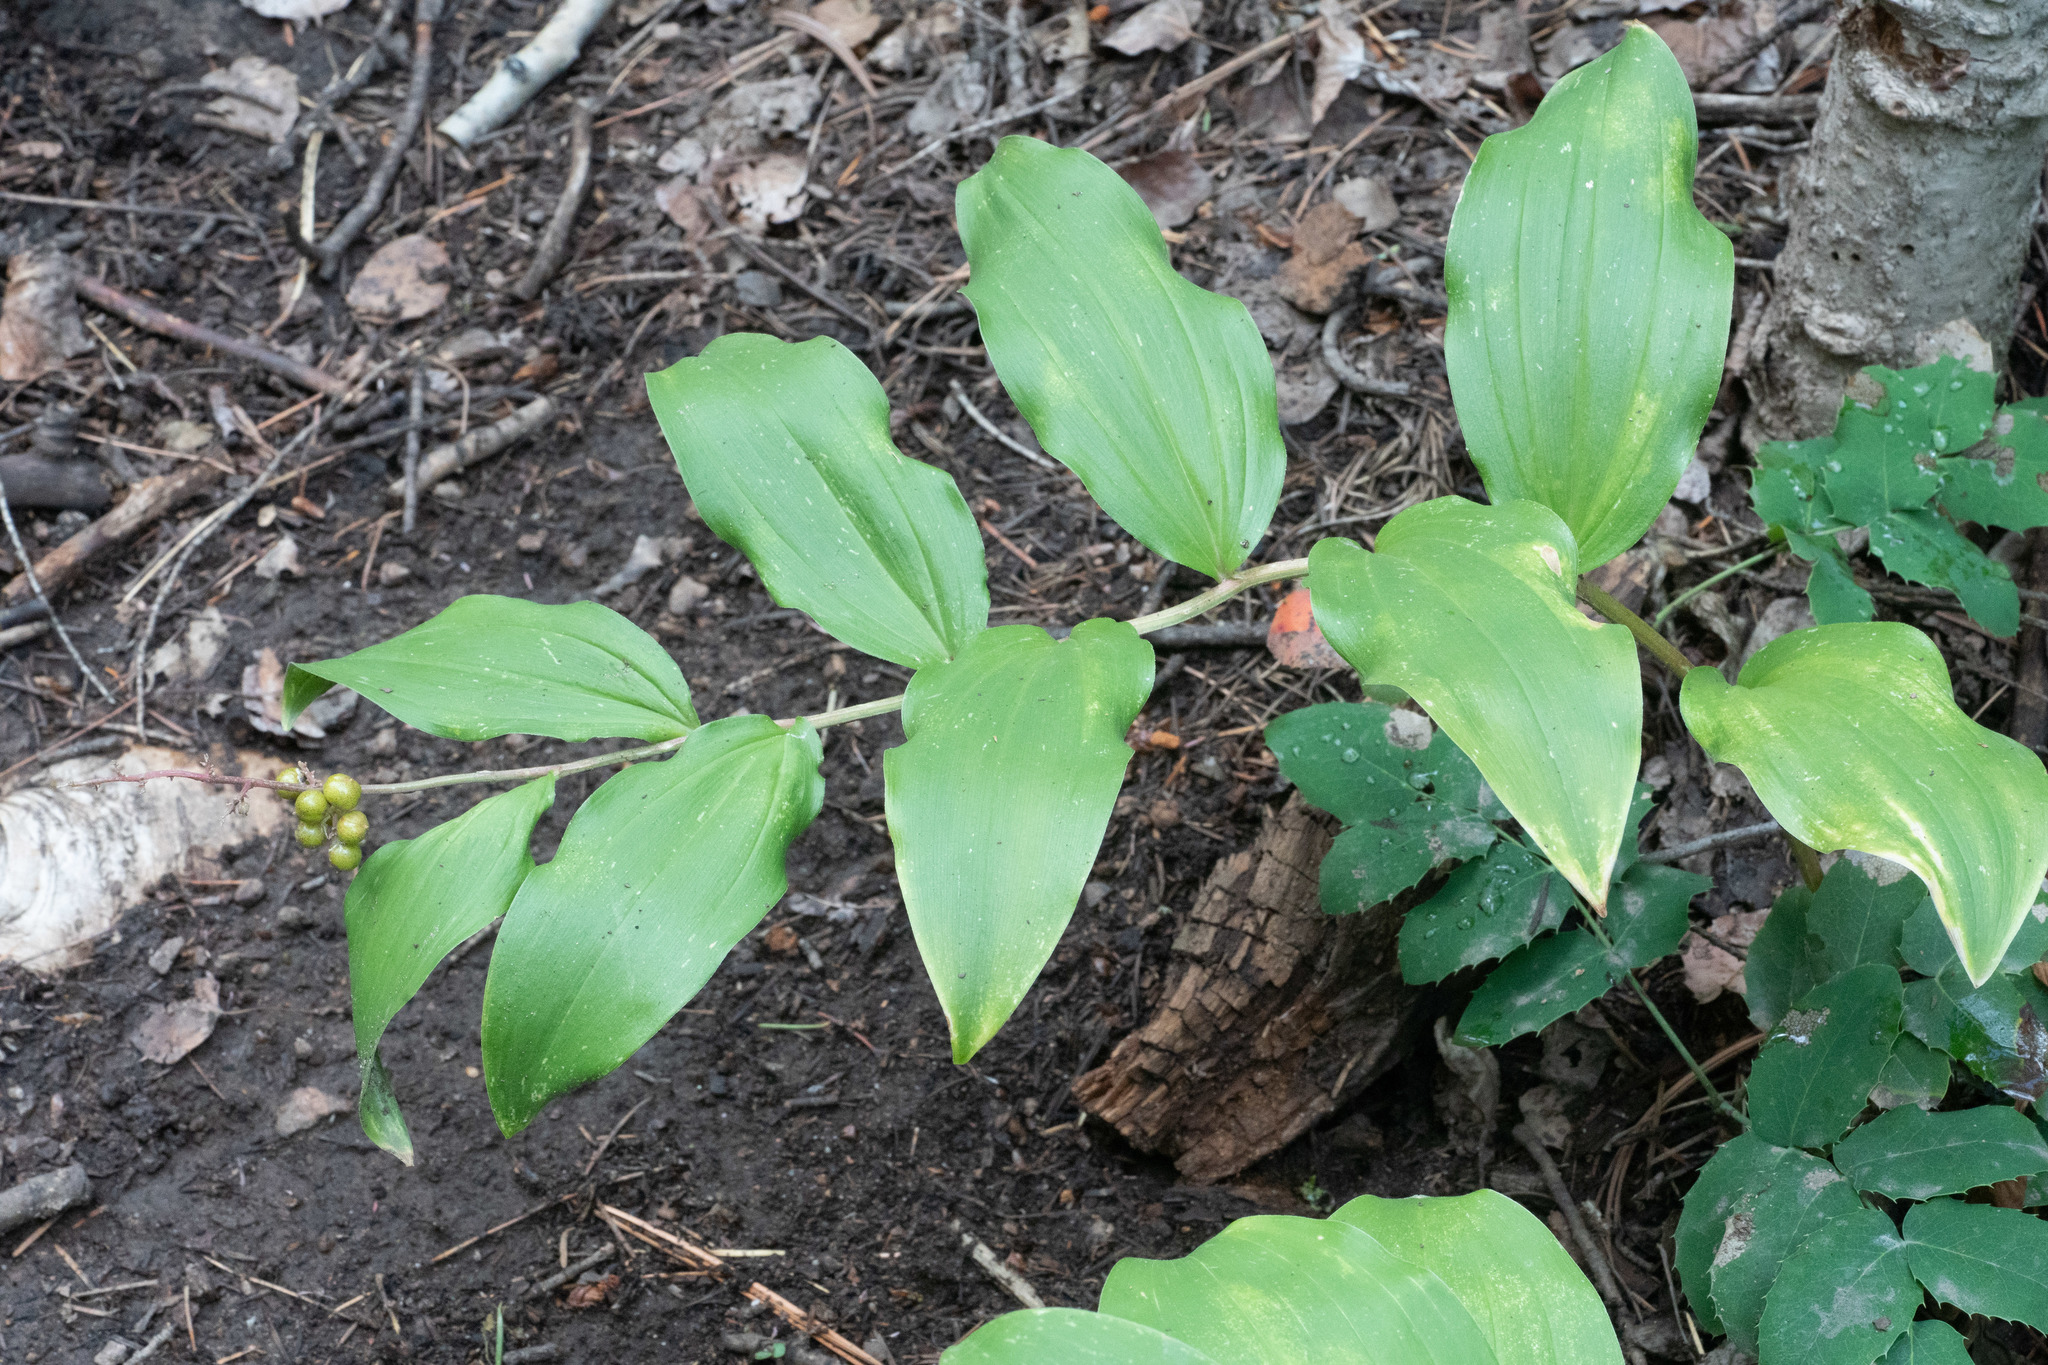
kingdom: Plantae
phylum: Tracheophyta
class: Liliopsida
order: Asparagales
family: Asparagaceae
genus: Maianthemum
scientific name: Maianthemum racemosum
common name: False spikenard
